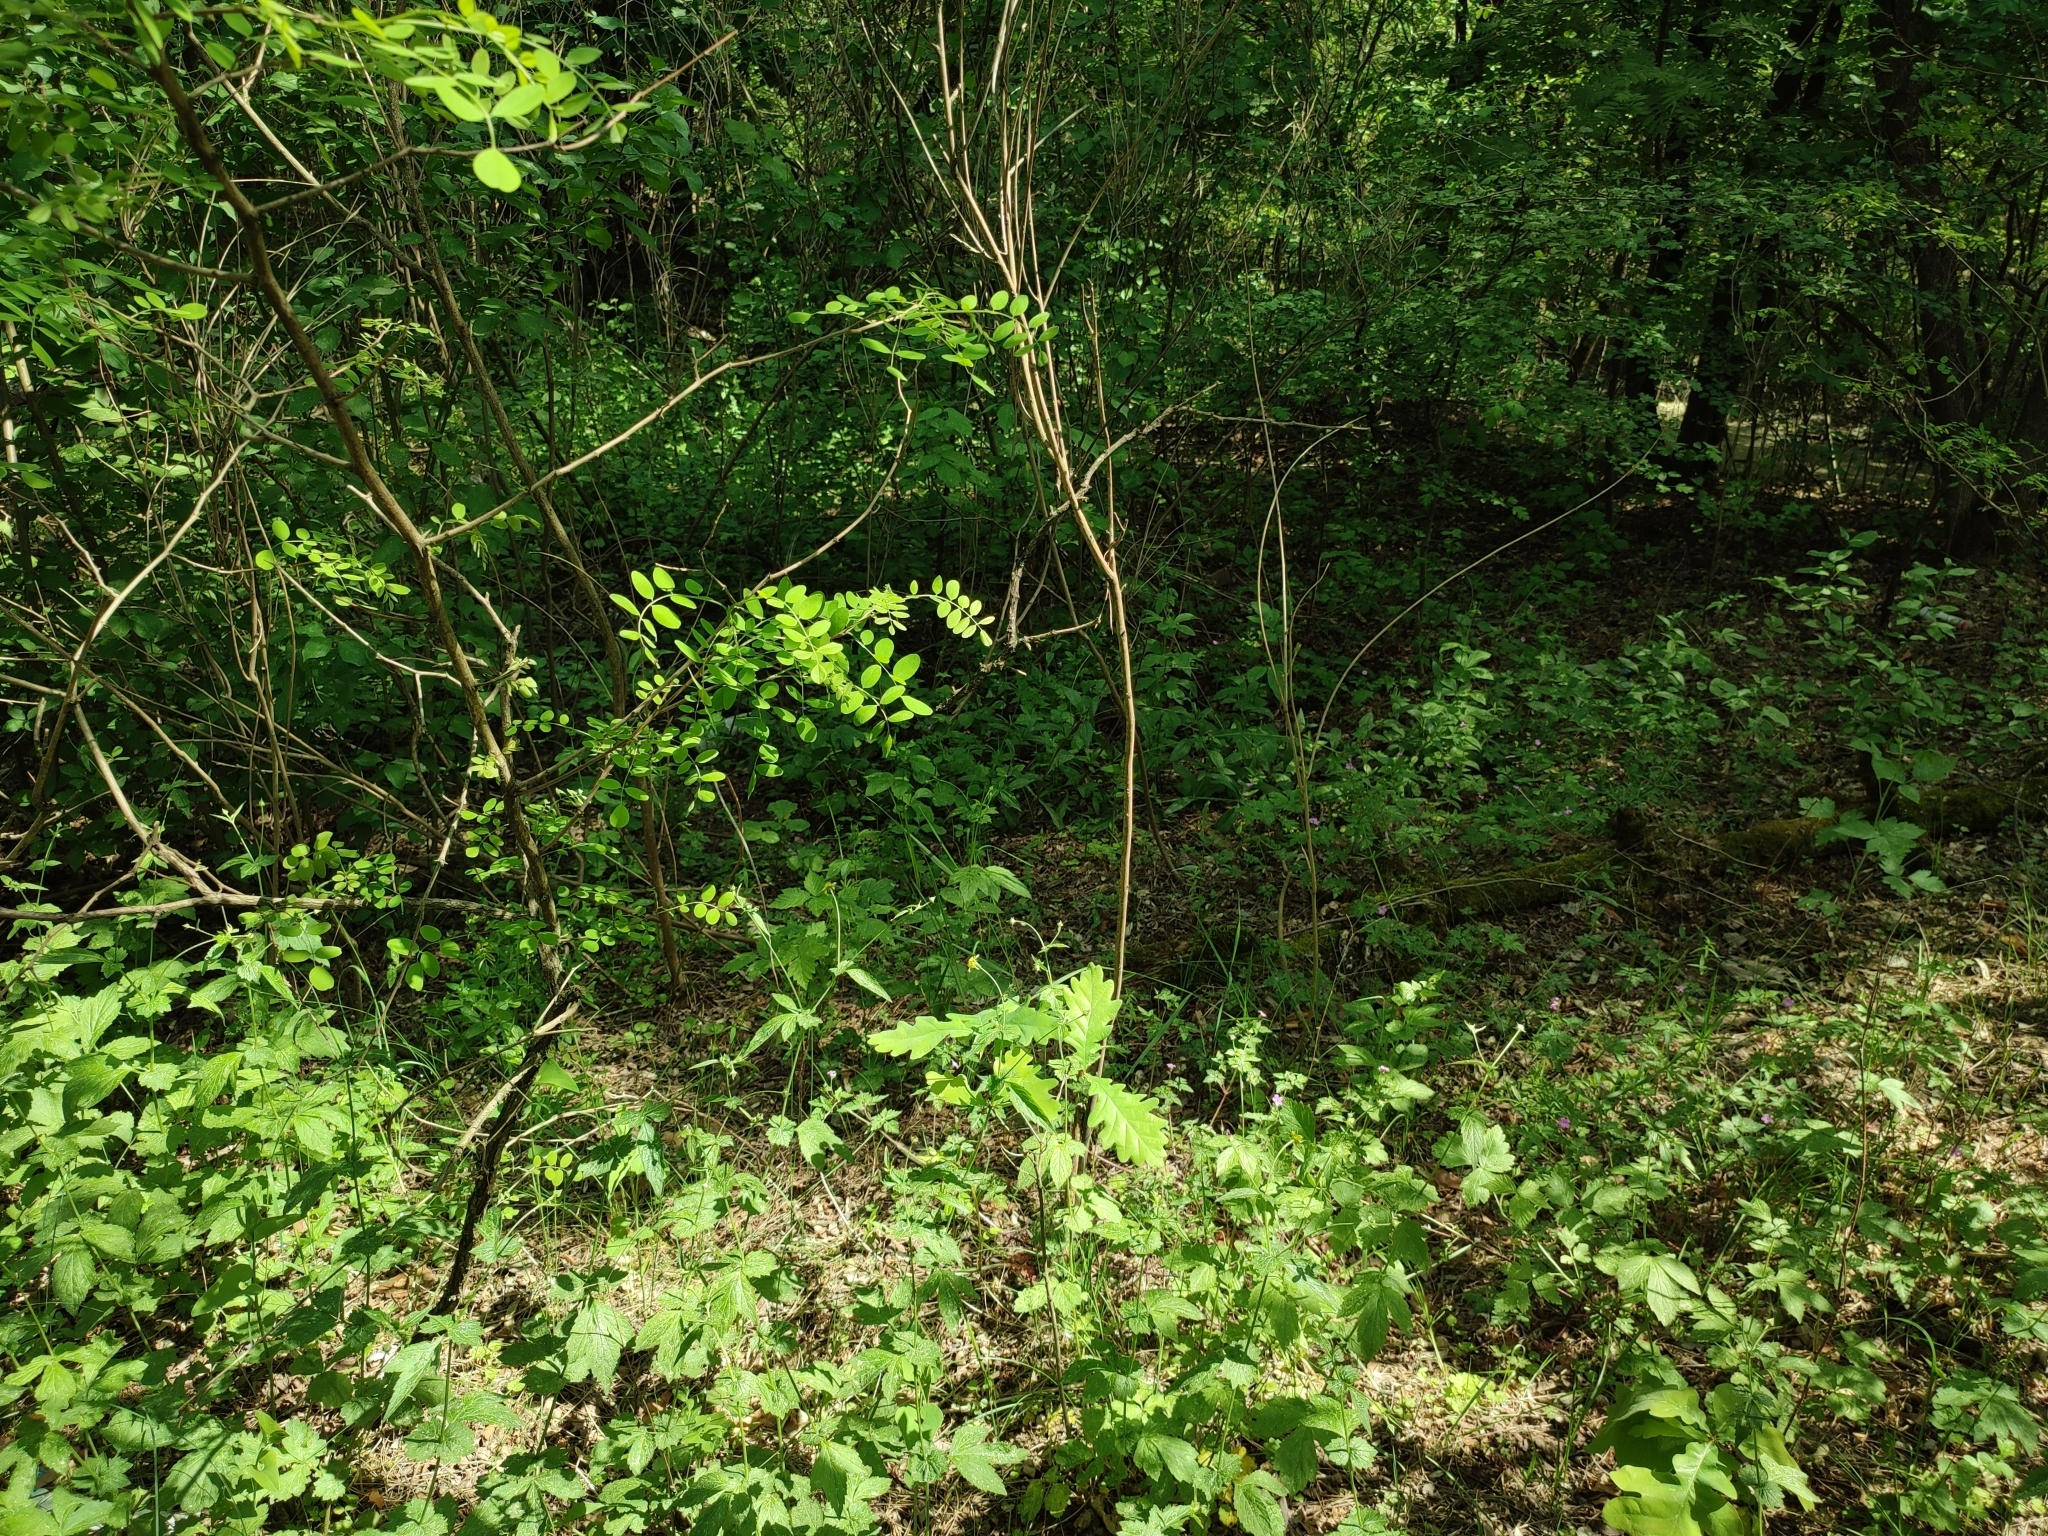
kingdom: Plantae
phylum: Tracheophyta
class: Magnoliopsida
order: Fagales
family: Fagaceae
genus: Quercus
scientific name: Quercus robur
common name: Pedunculate oak
